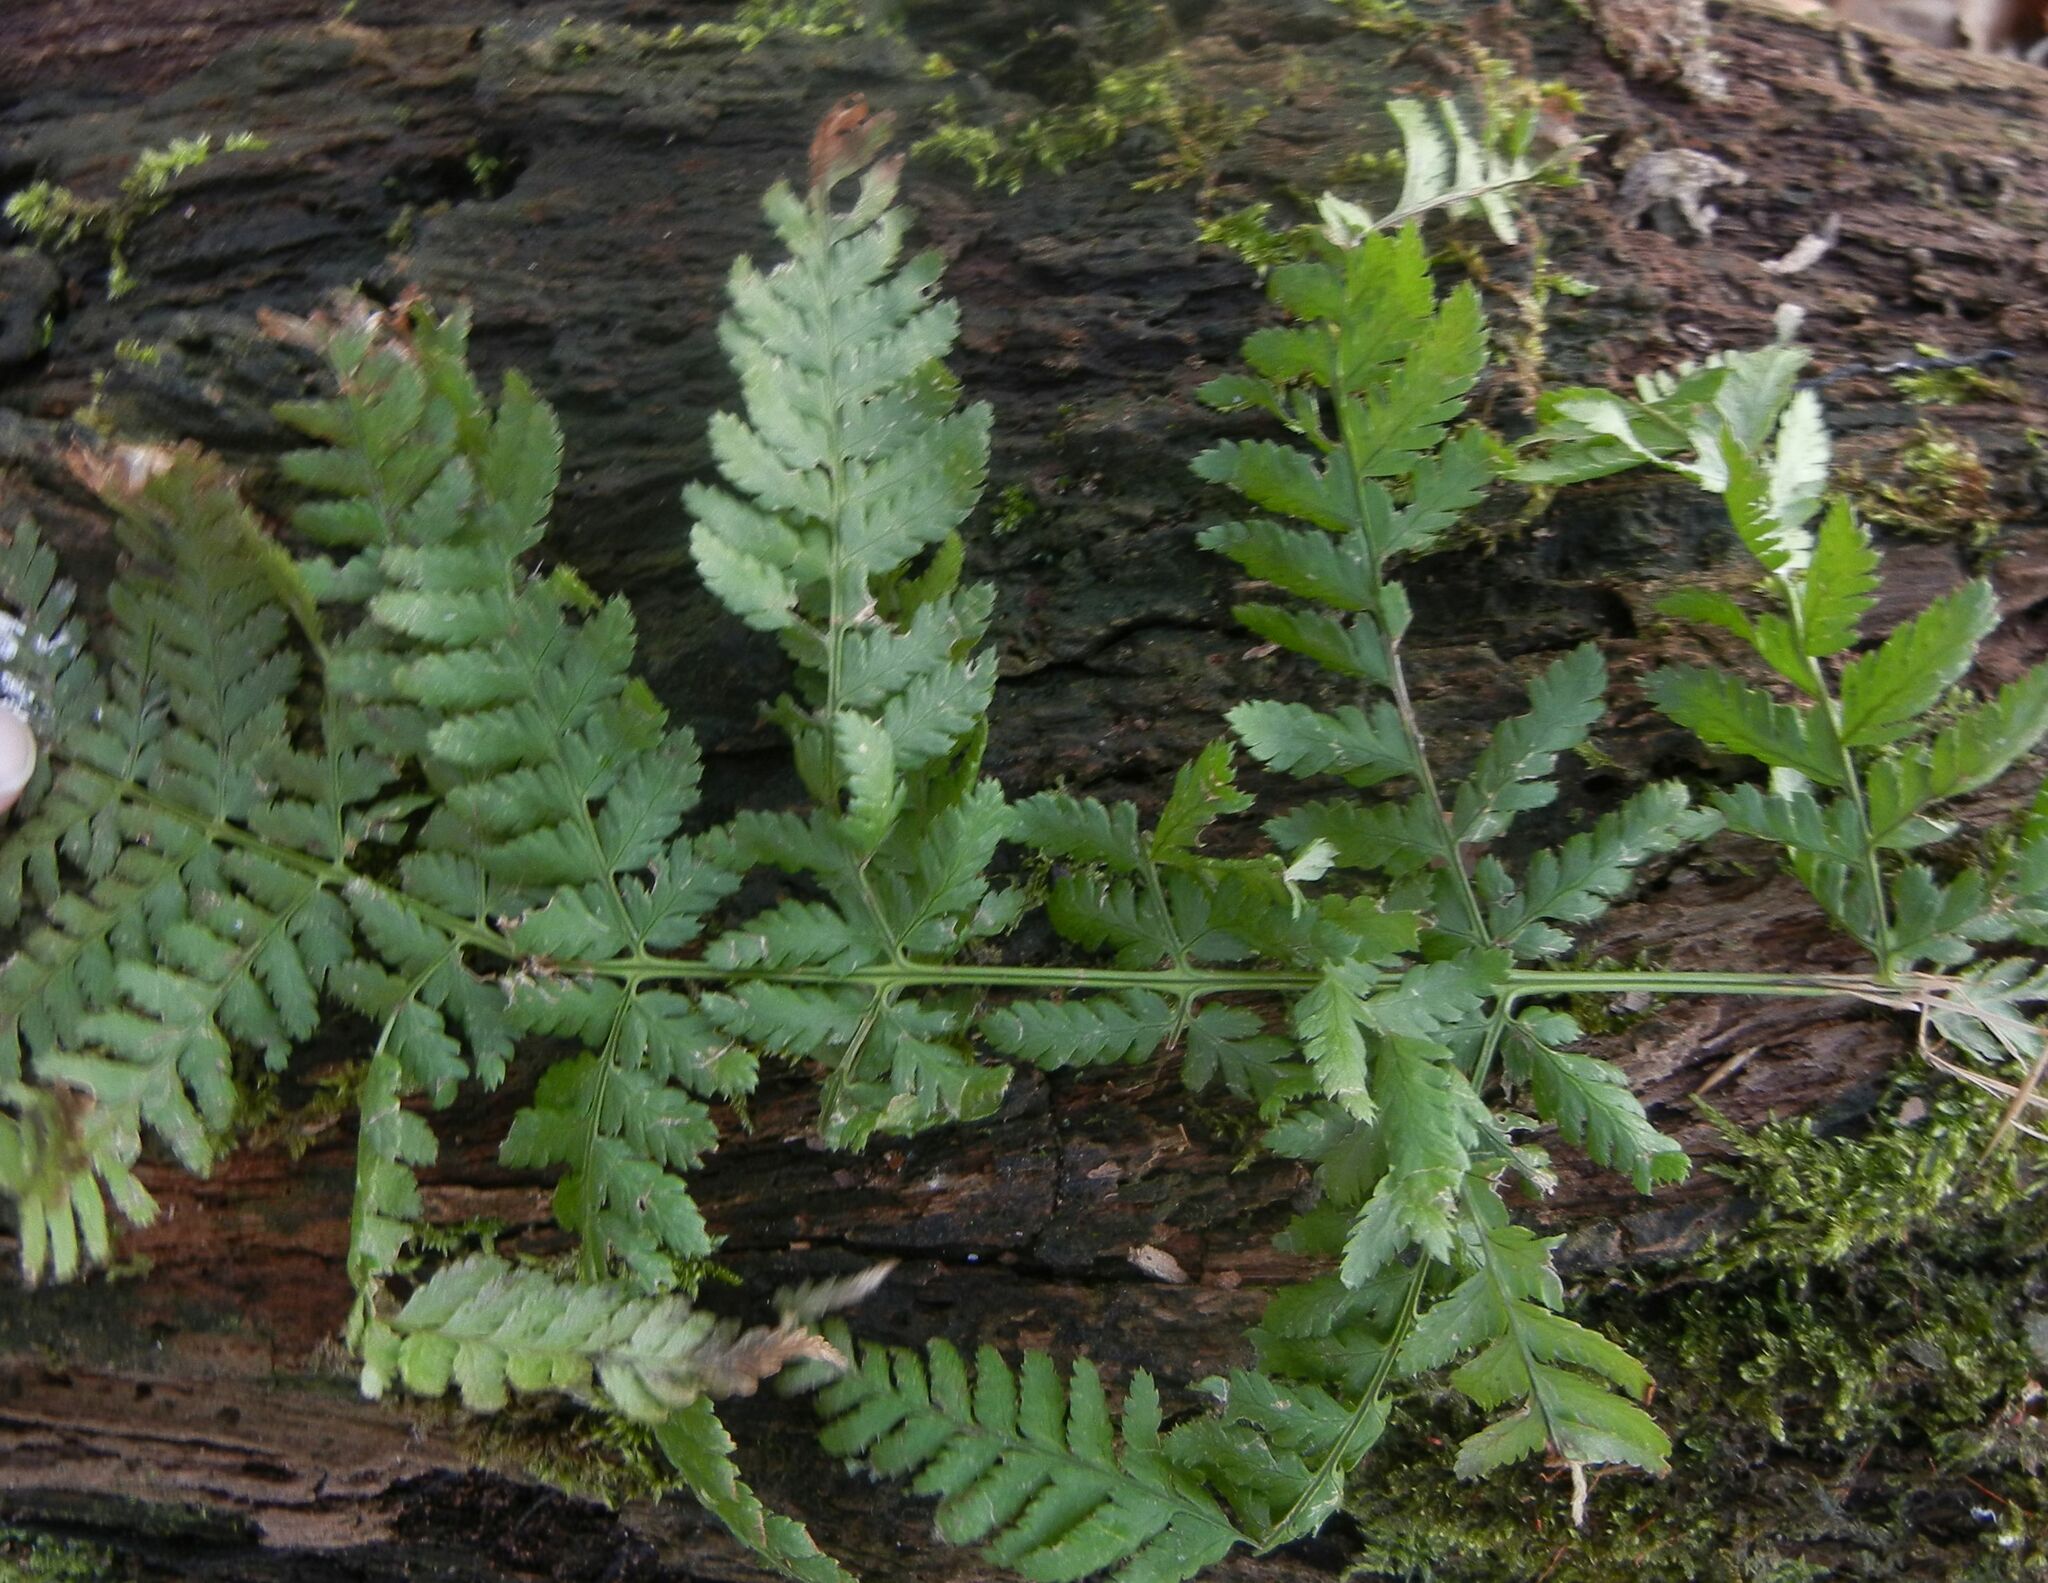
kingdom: Plantae
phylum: Tracheophyta
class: Polypodiopsida
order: Polypodiales
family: Dryopteridaceae
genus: Dryopteris
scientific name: Dryopteris dilatata
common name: Broad buckler-fern
